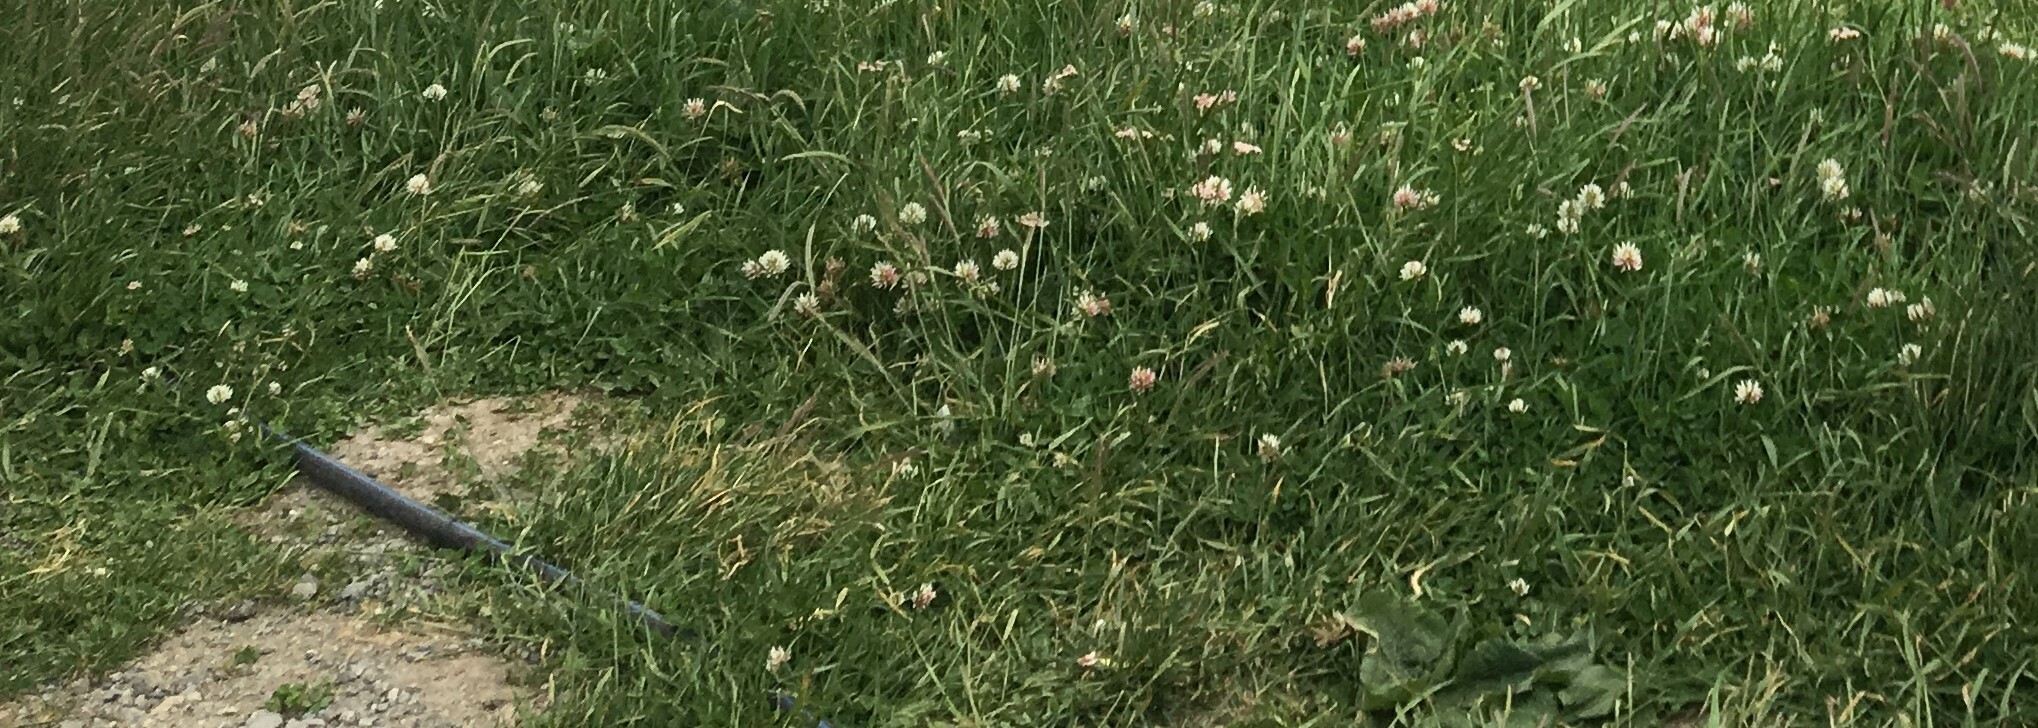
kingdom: Plantae
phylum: Tracheophyta
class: Magnoliopsida
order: Fabales
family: Fabaceae
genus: Trifolium
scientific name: Trifolium repens
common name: White clover
